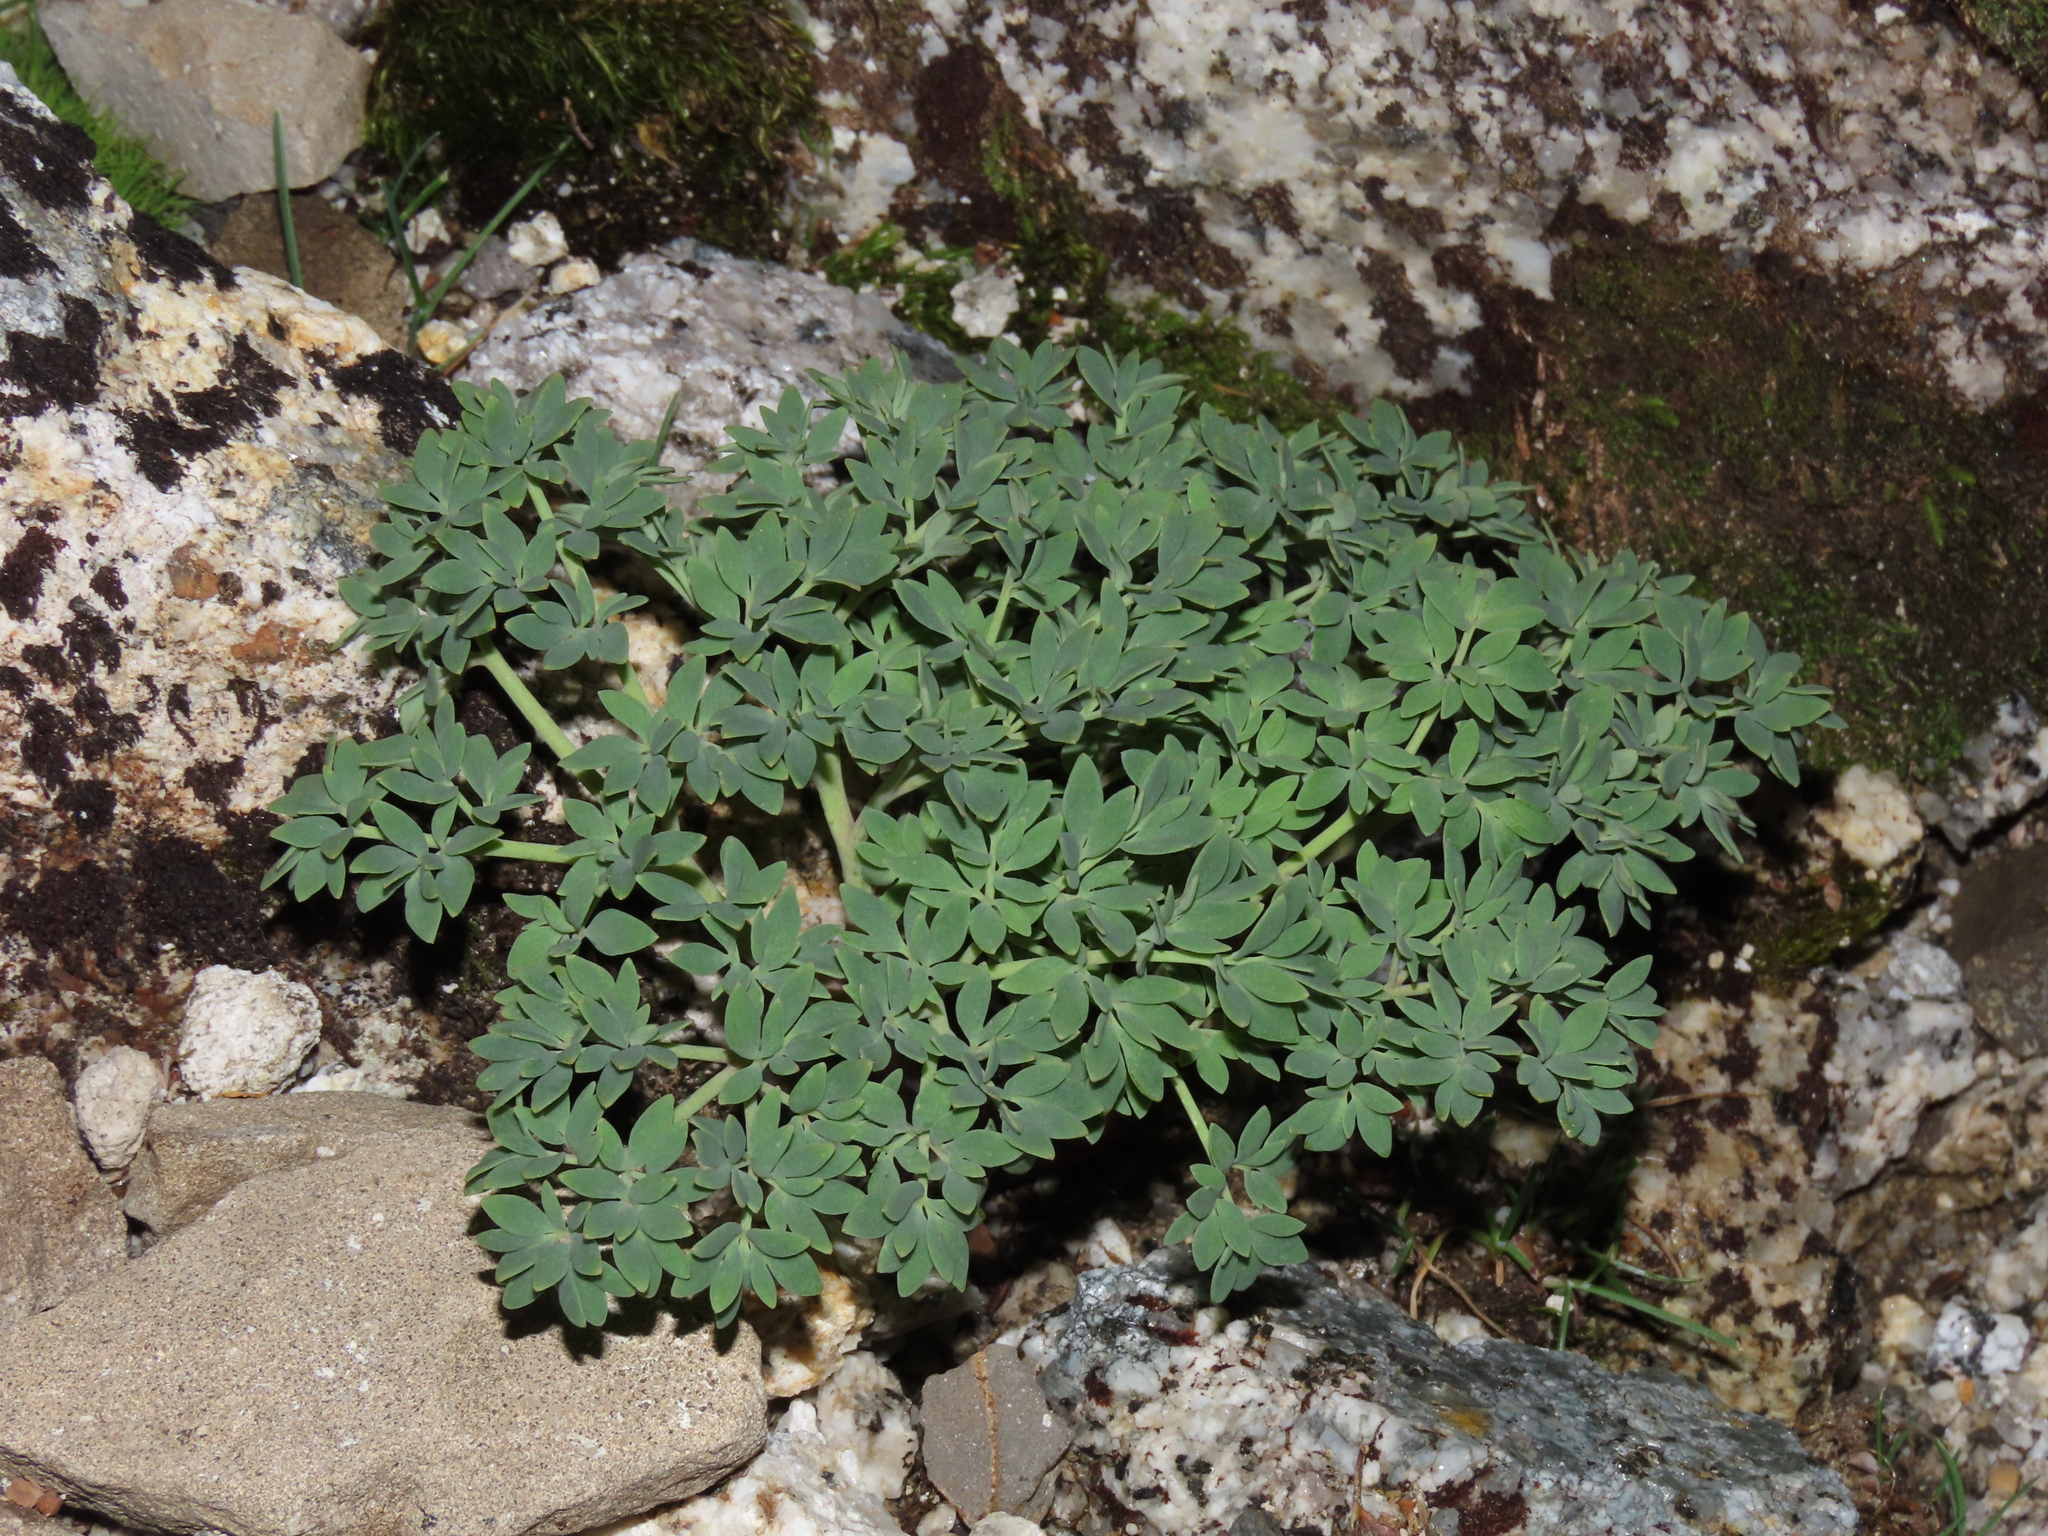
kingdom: Plantae
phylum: Tracheophyta
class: Magnoliopsida
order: Ranunculales
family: Ranunculaceae
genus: Callianthemoides
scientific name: Callianthemoides semiverticillatus
